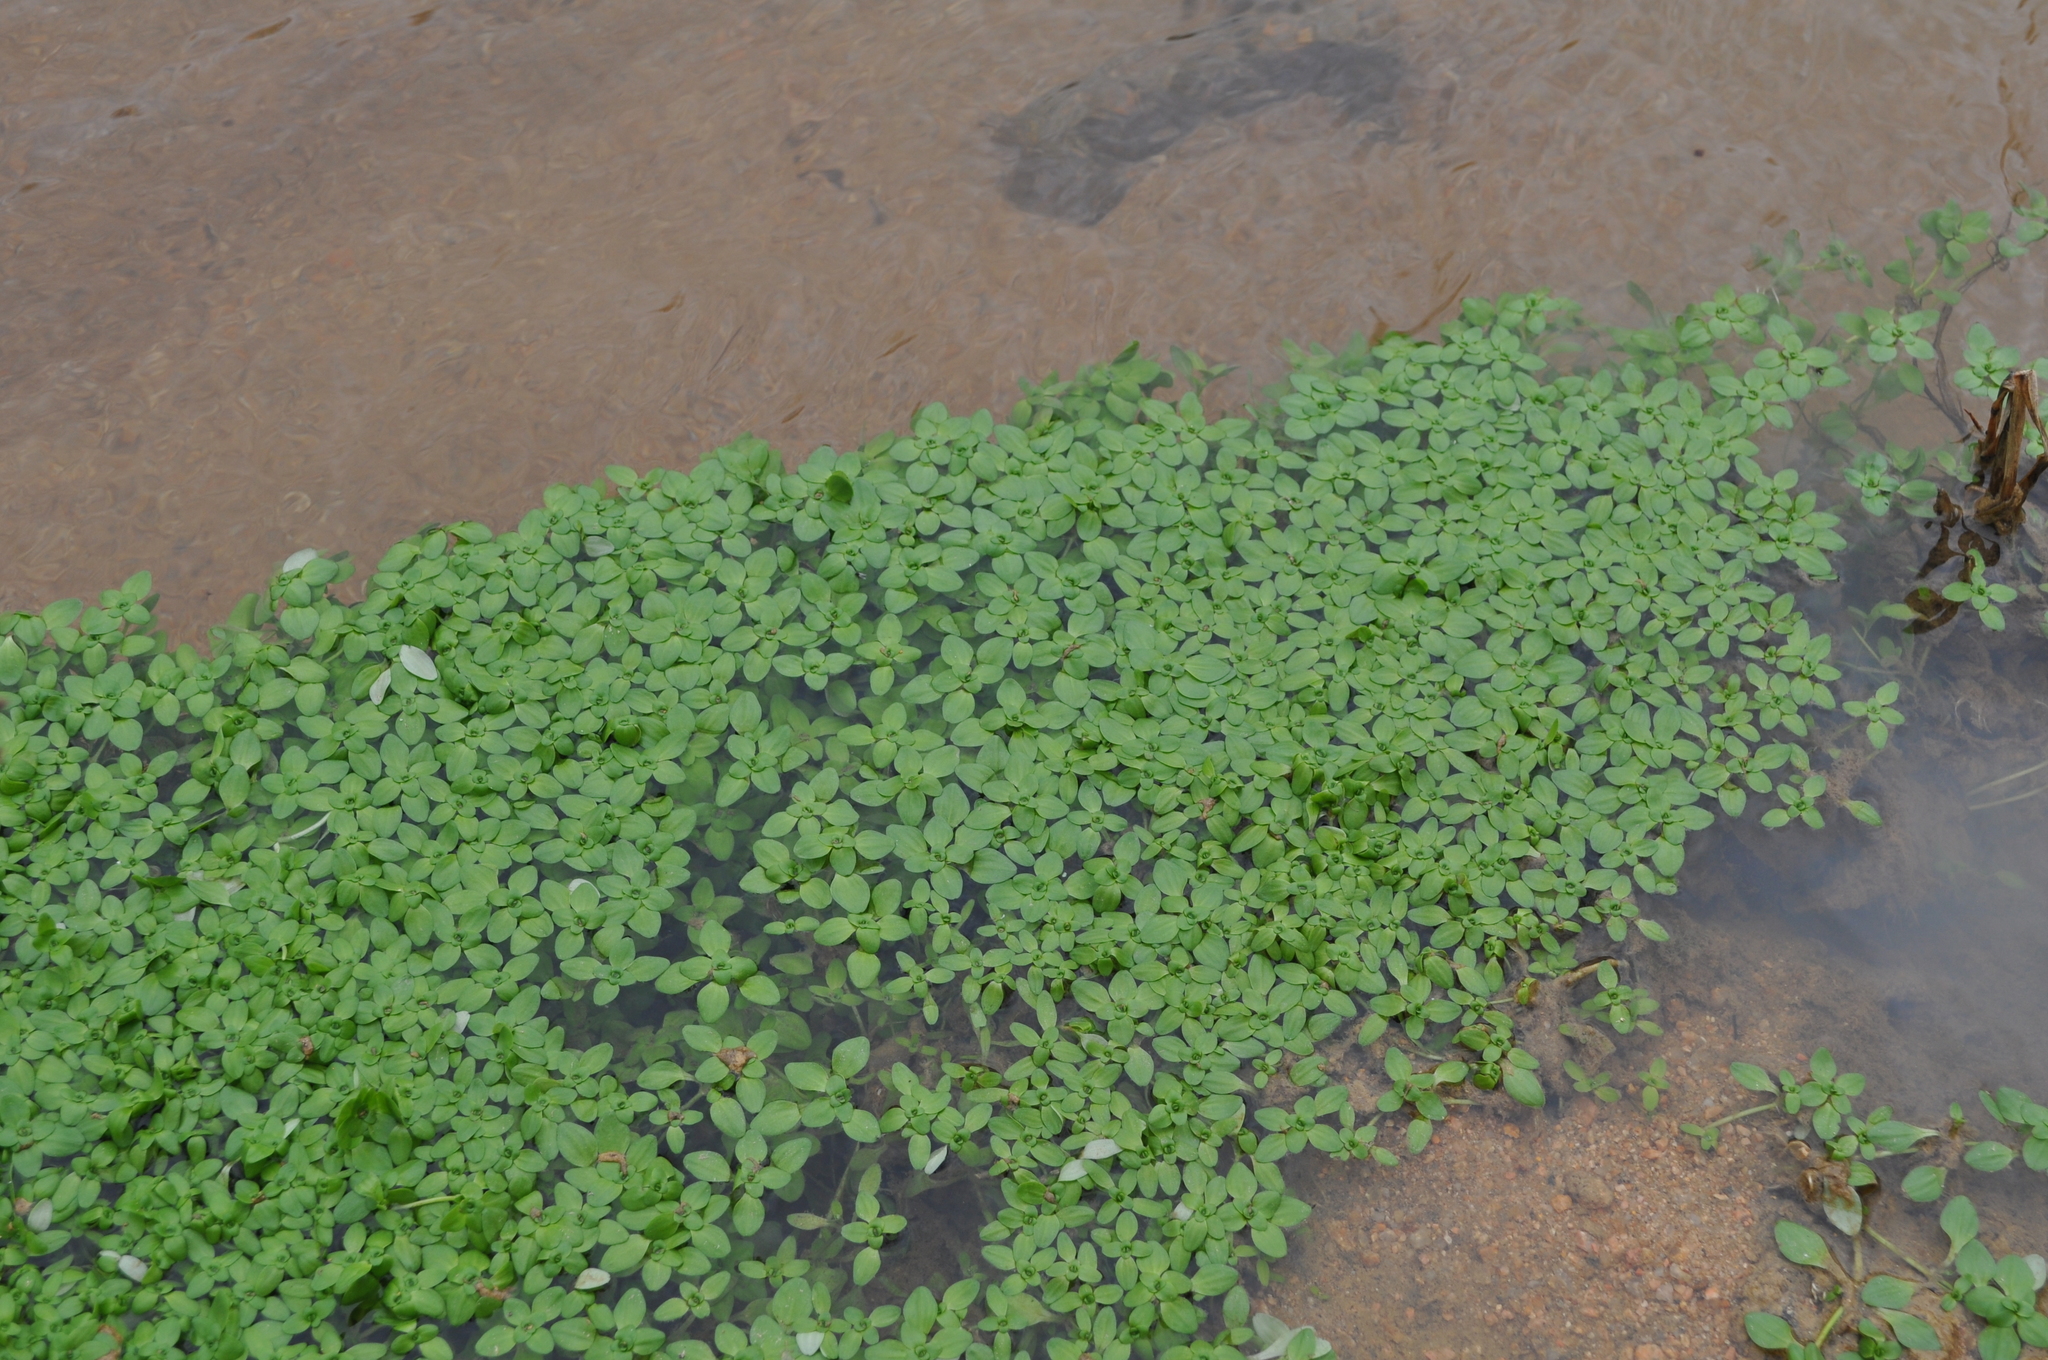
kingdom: Plantae
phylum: Tracheophyta
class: Magnoliopsida
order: Lamiales
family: Plantaginaceae
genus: Callitriche
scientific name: Callitriche stagnalis
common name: Common water-starwort
